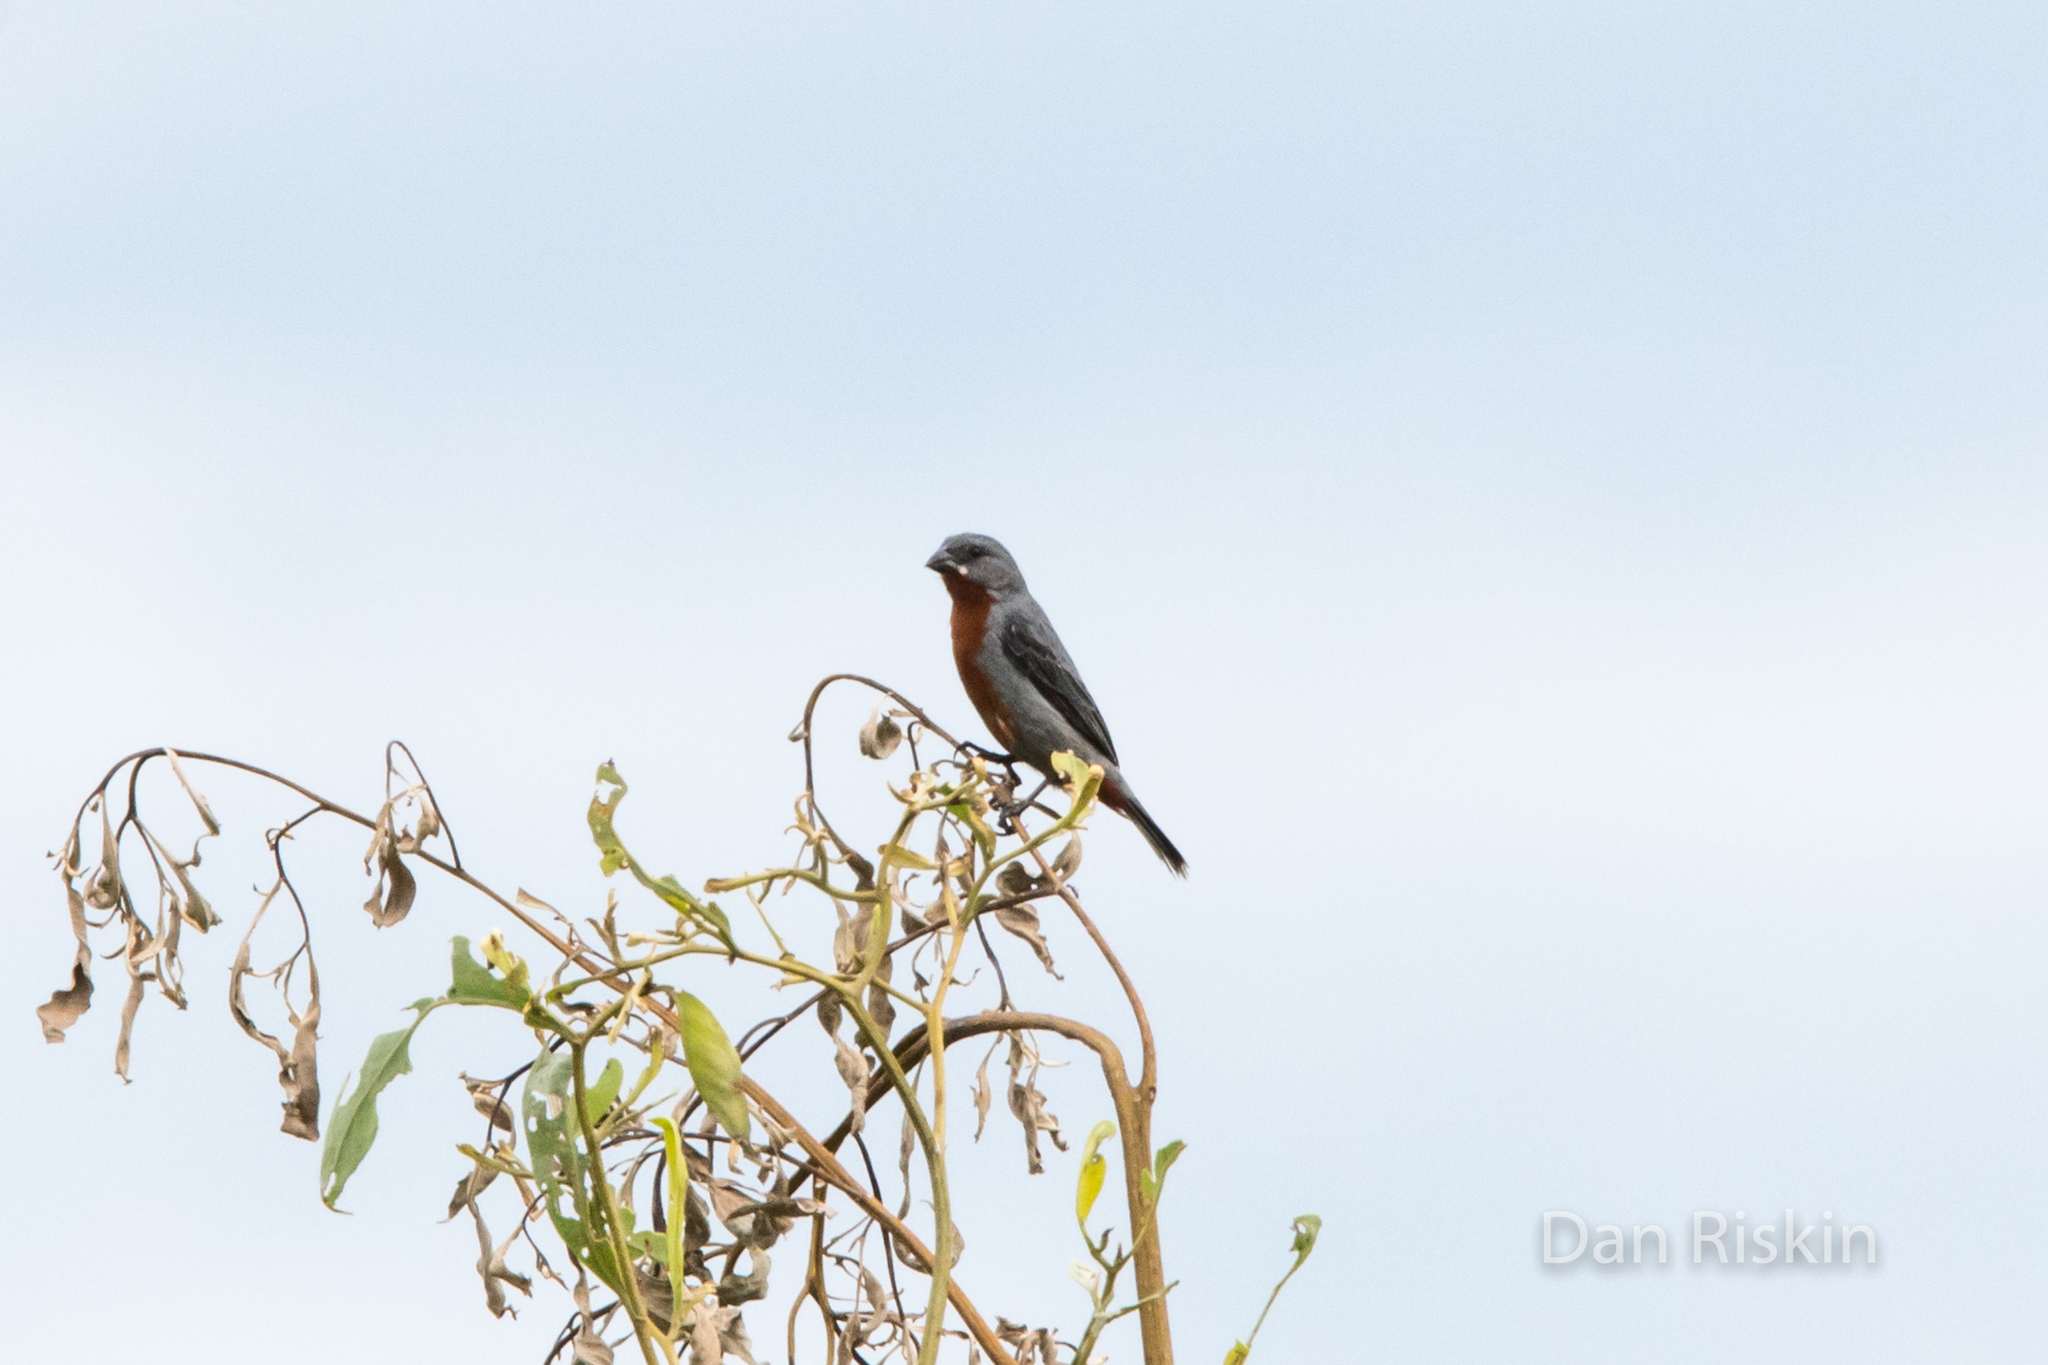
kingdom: Animalia
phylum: Chordata
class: Aves
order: Passeriformes
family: Thraupidae
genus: Sporophila
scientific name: Sporophila castaneiventris
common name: Chestnut-bellied seedeater
